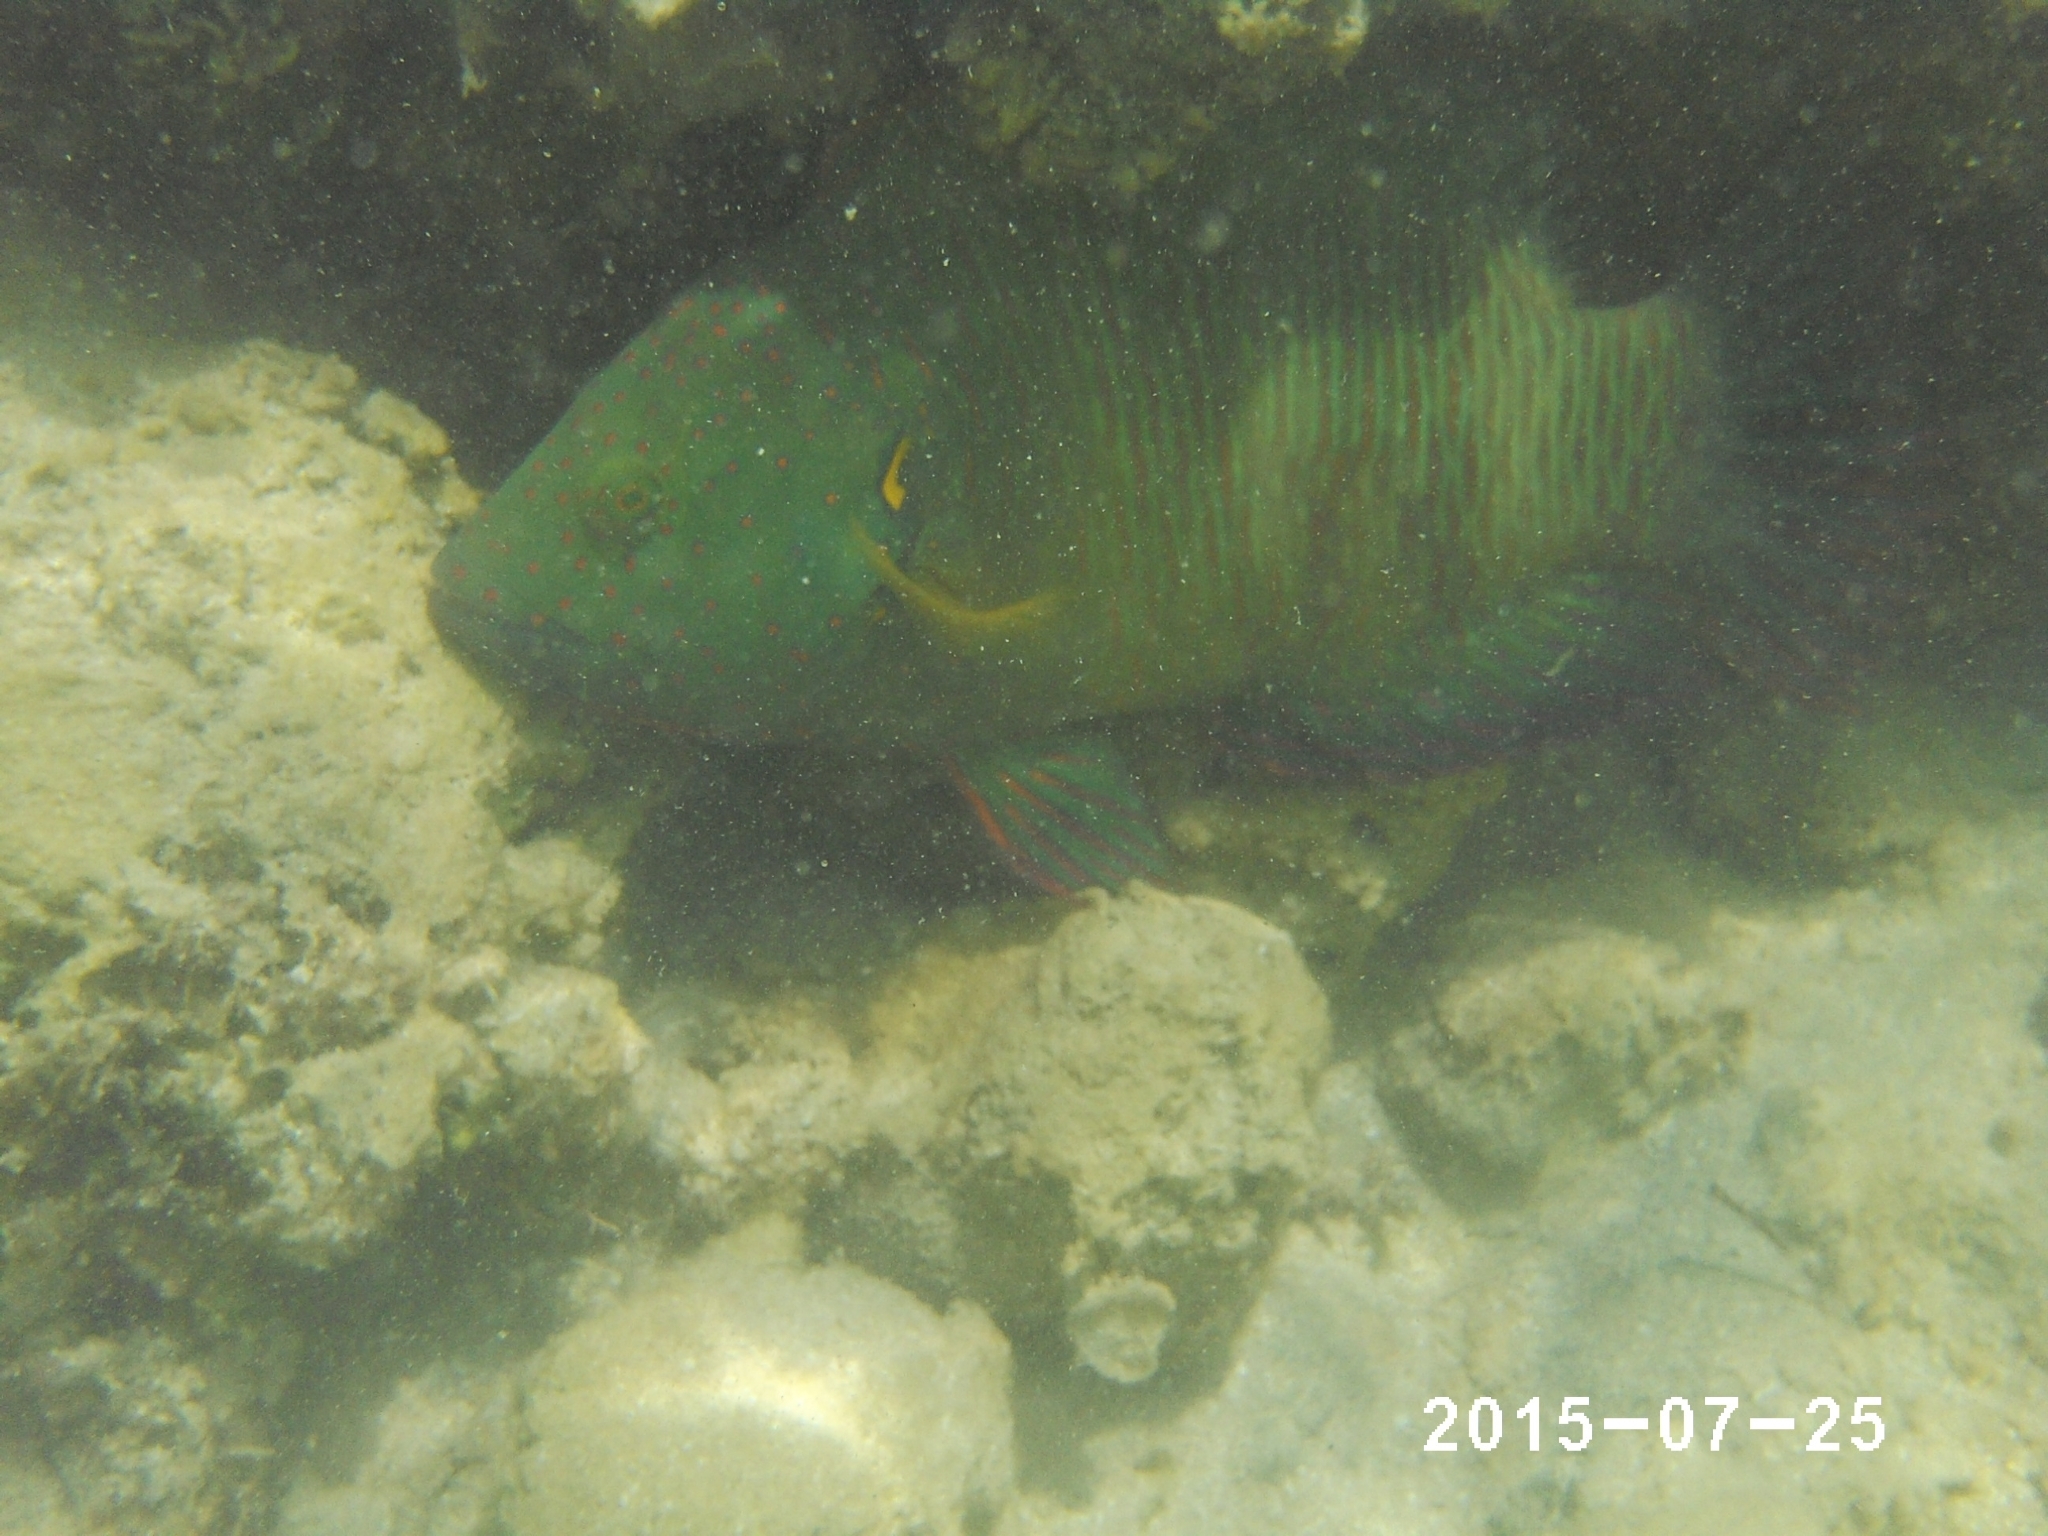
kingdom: Animalia
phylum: Chordata
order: Perciformes
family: Labridae
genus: Cheilinus
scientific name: Cheilinus lunulatus
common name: Broomtail wrasse
